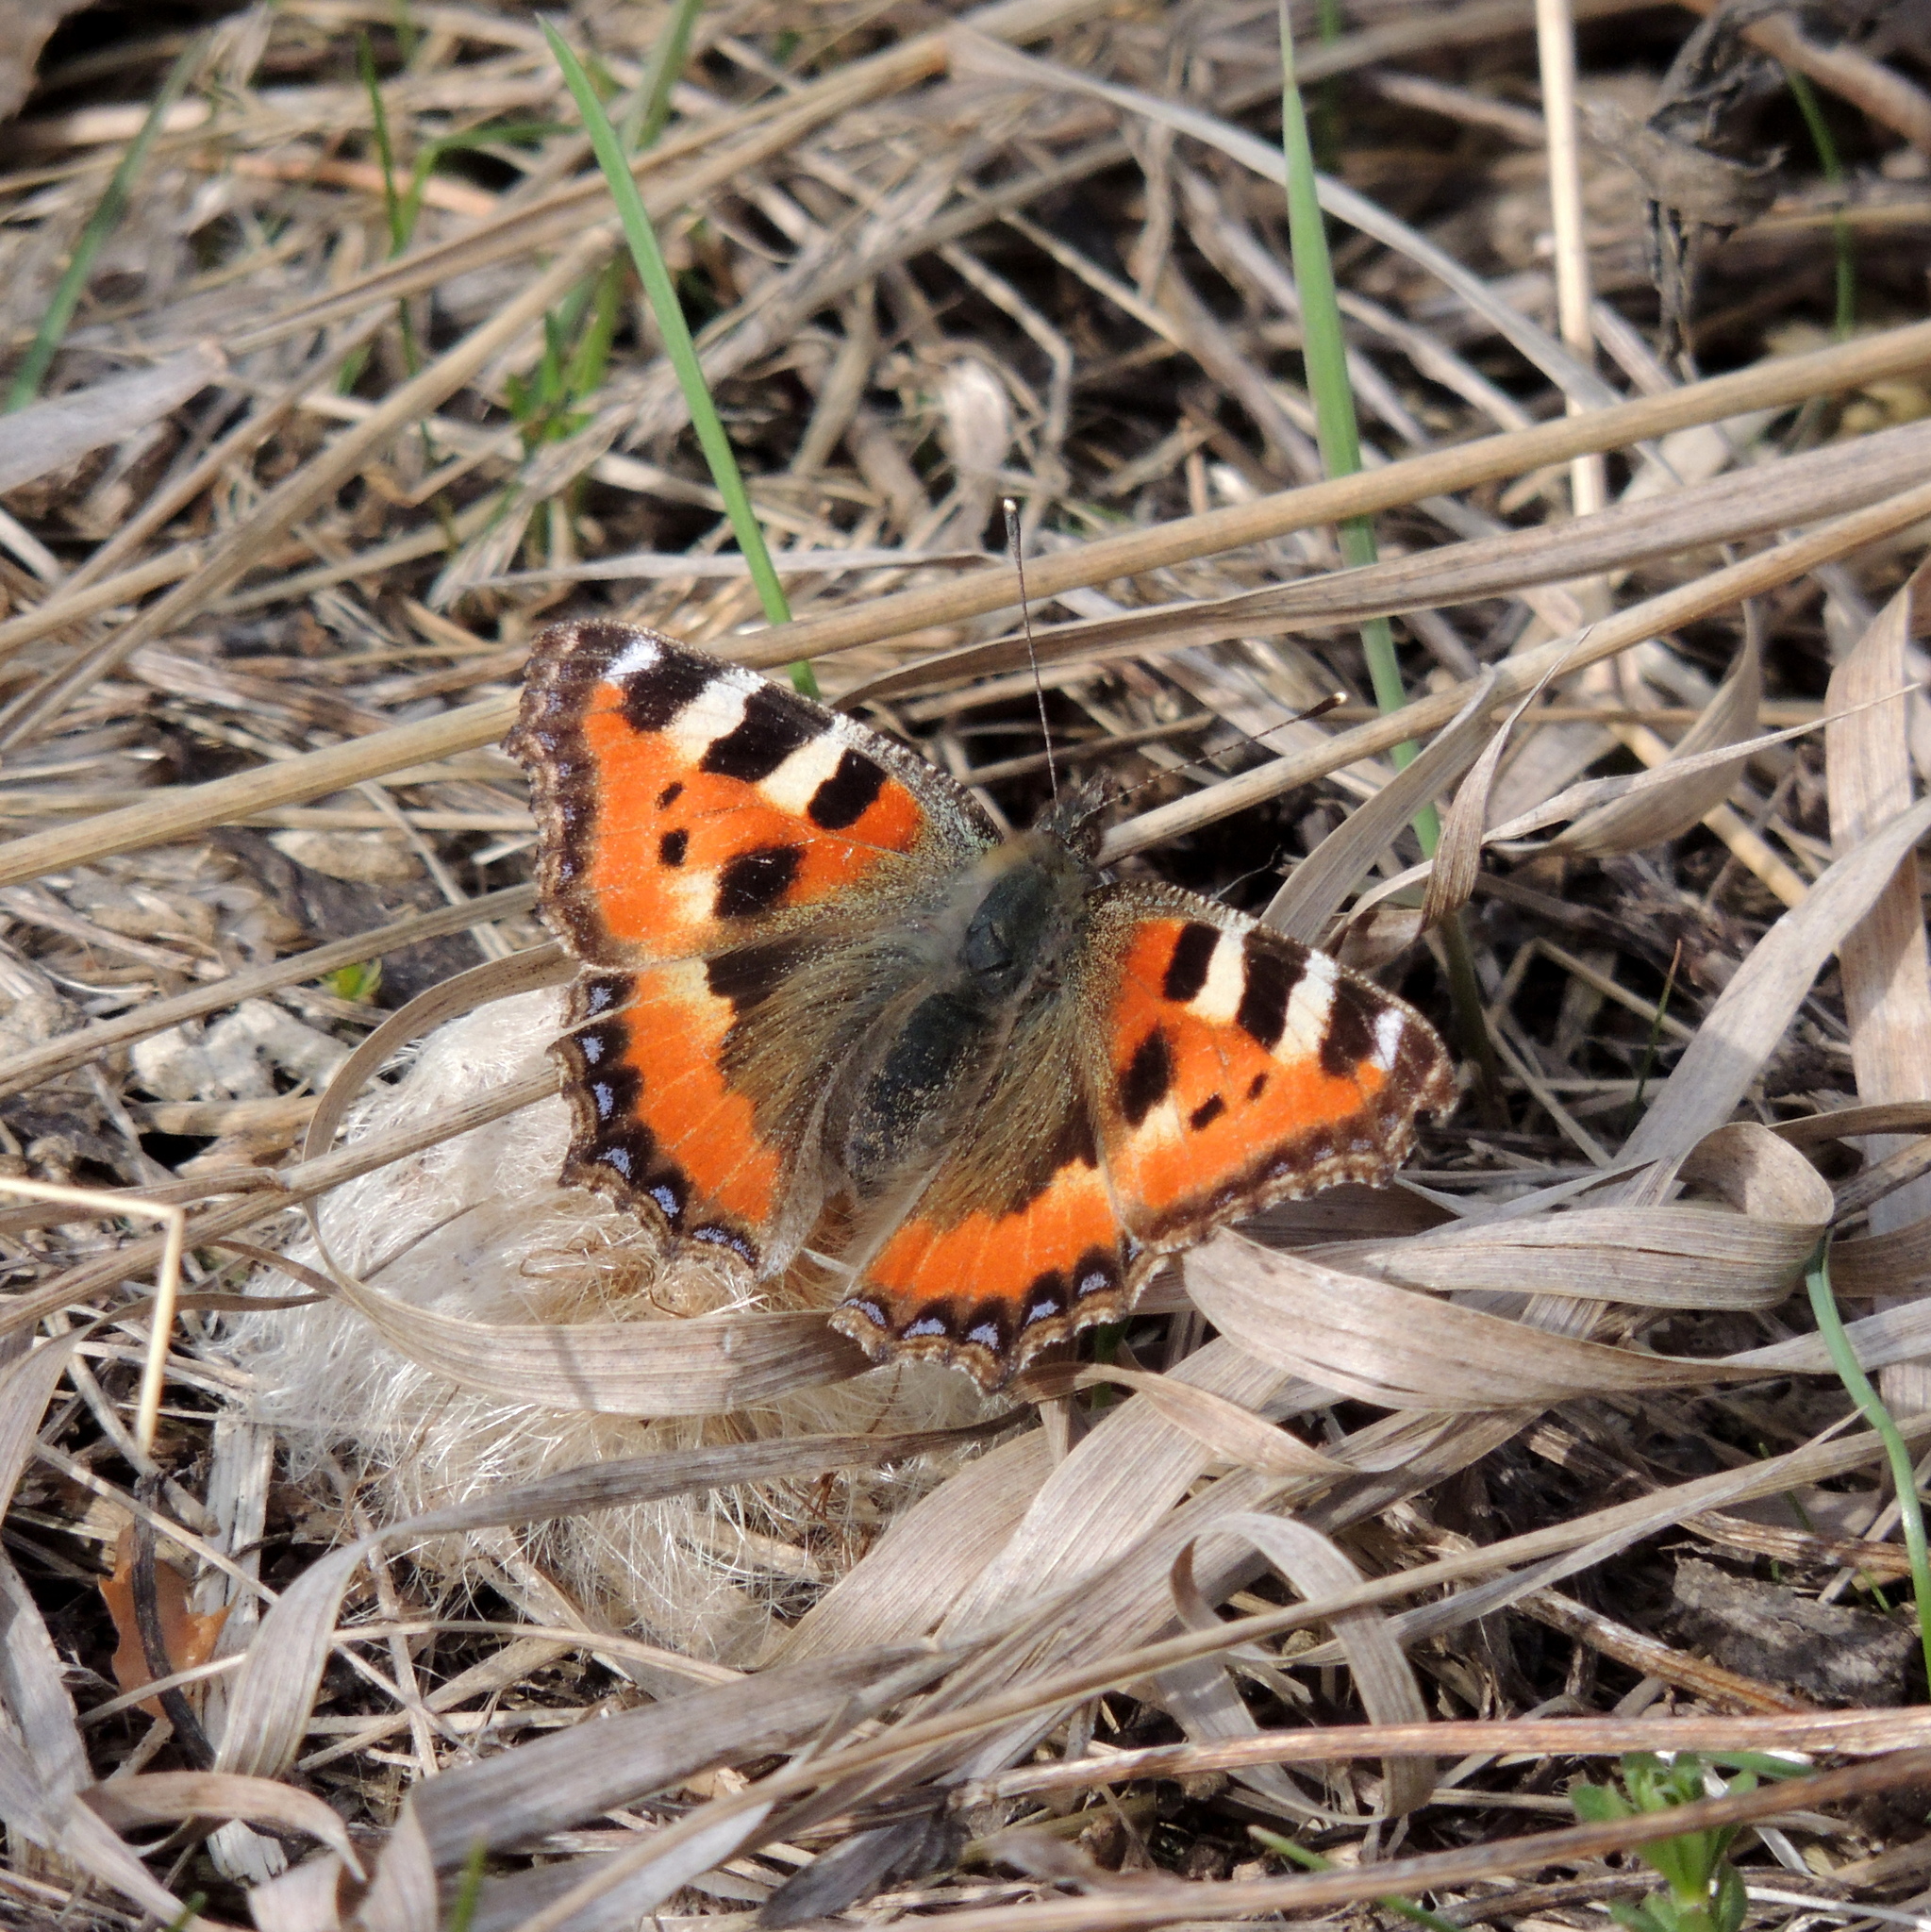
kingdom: Animalia
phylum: Arthropoda
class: Insecta
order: Lepidoptera
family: Nymphalidae
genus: Aglais
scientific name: Aglais urticae
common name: Small tortoiseshell
